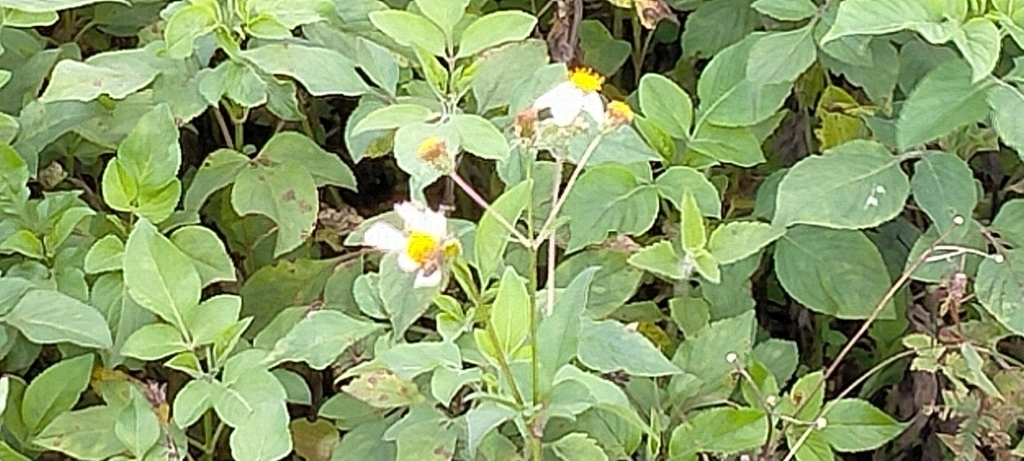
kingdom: Animalia
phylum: Arthropoda
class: Insecta
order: Hymenoptera
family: Apidae
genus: Apis
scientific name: Apis cerana
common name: Honey bee
